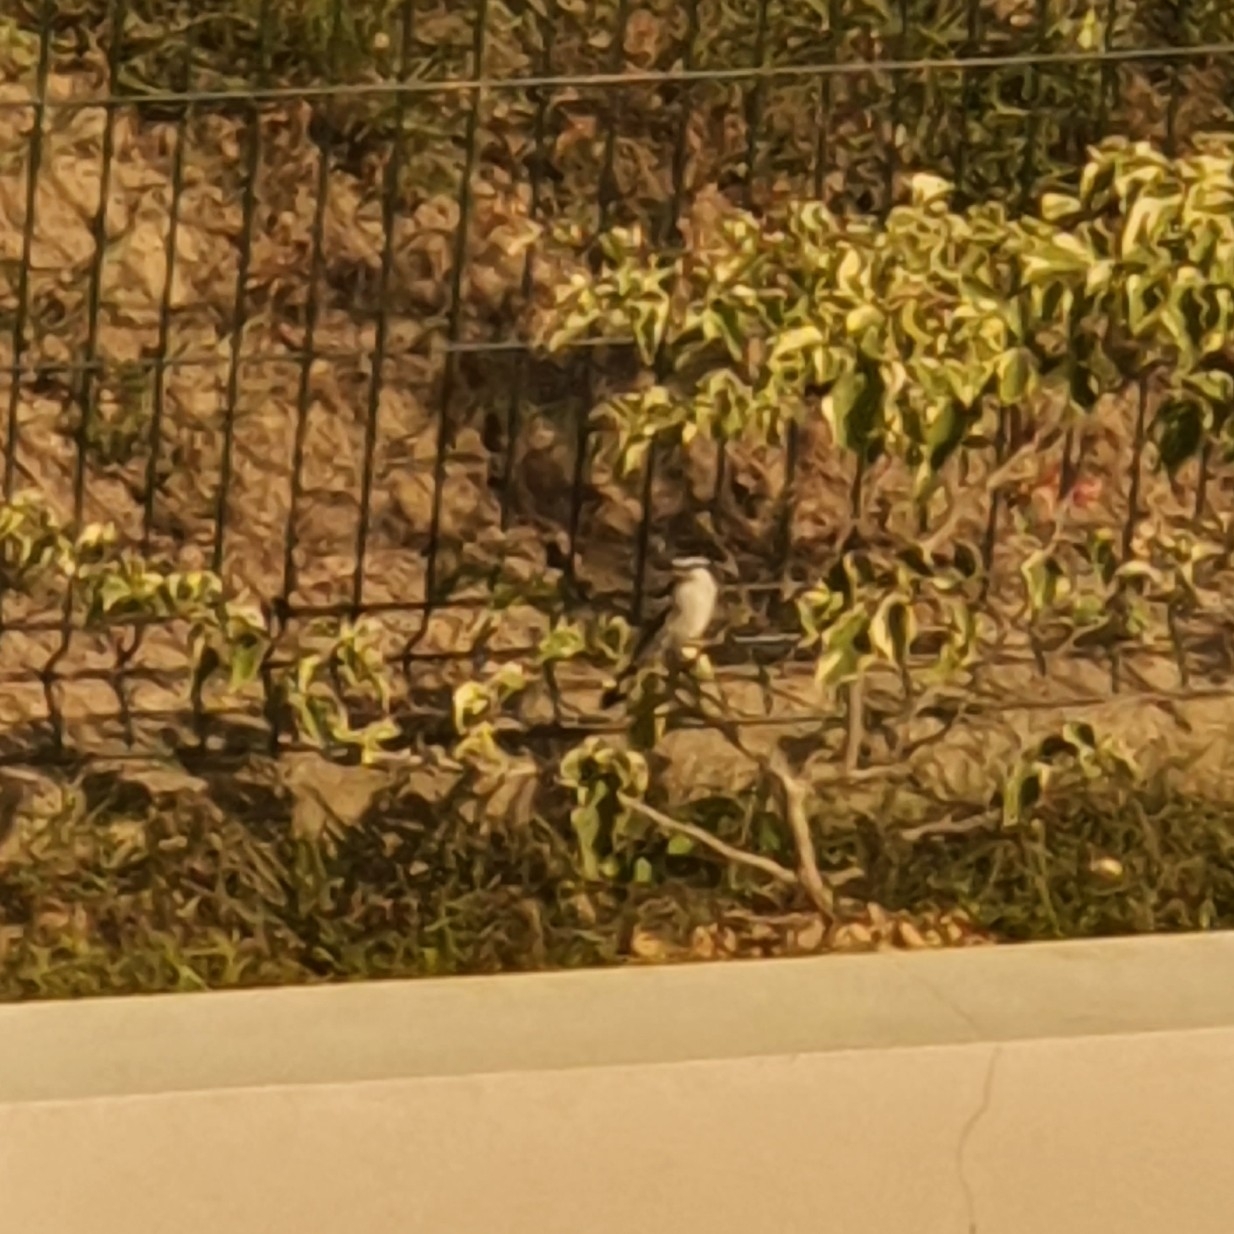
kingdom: Animalia
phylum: Chordata
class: Aves
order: Passeriformes
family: Campephagidae
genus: Lalage
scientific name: Lalage nigra
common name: Pied triller
